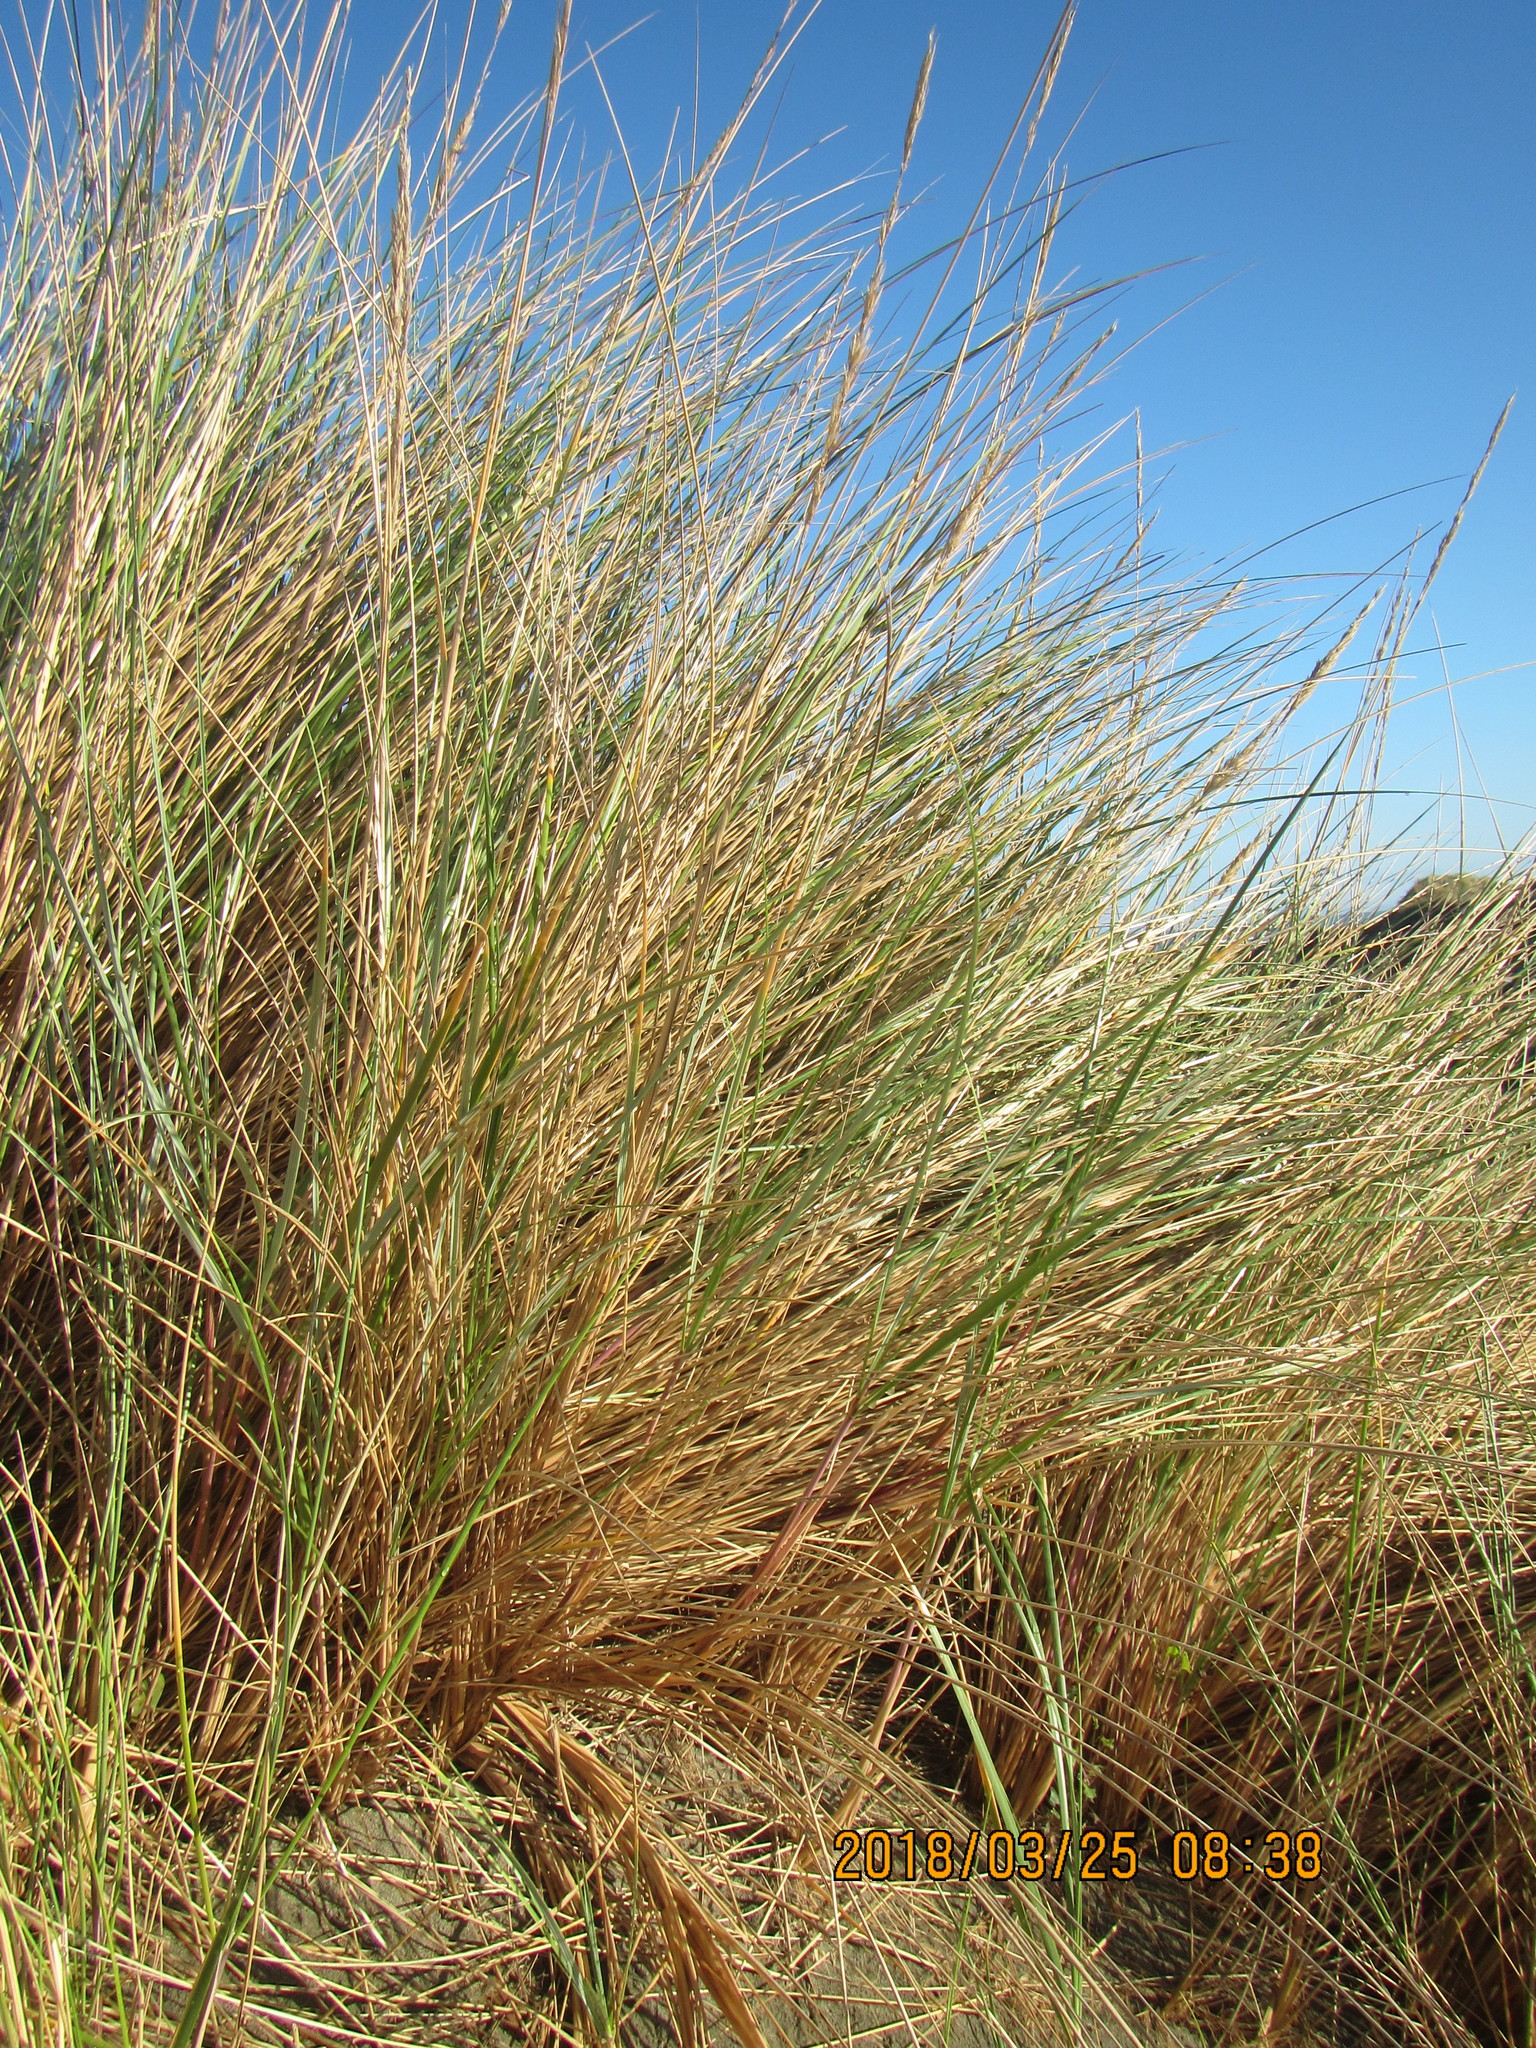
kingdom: Plantae
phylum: Tracheophyta
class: Liliopsida
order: Poales
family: Poaceae
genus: Calamagrostis
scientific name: Calamagrostis arenaria
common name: European beachgrass
